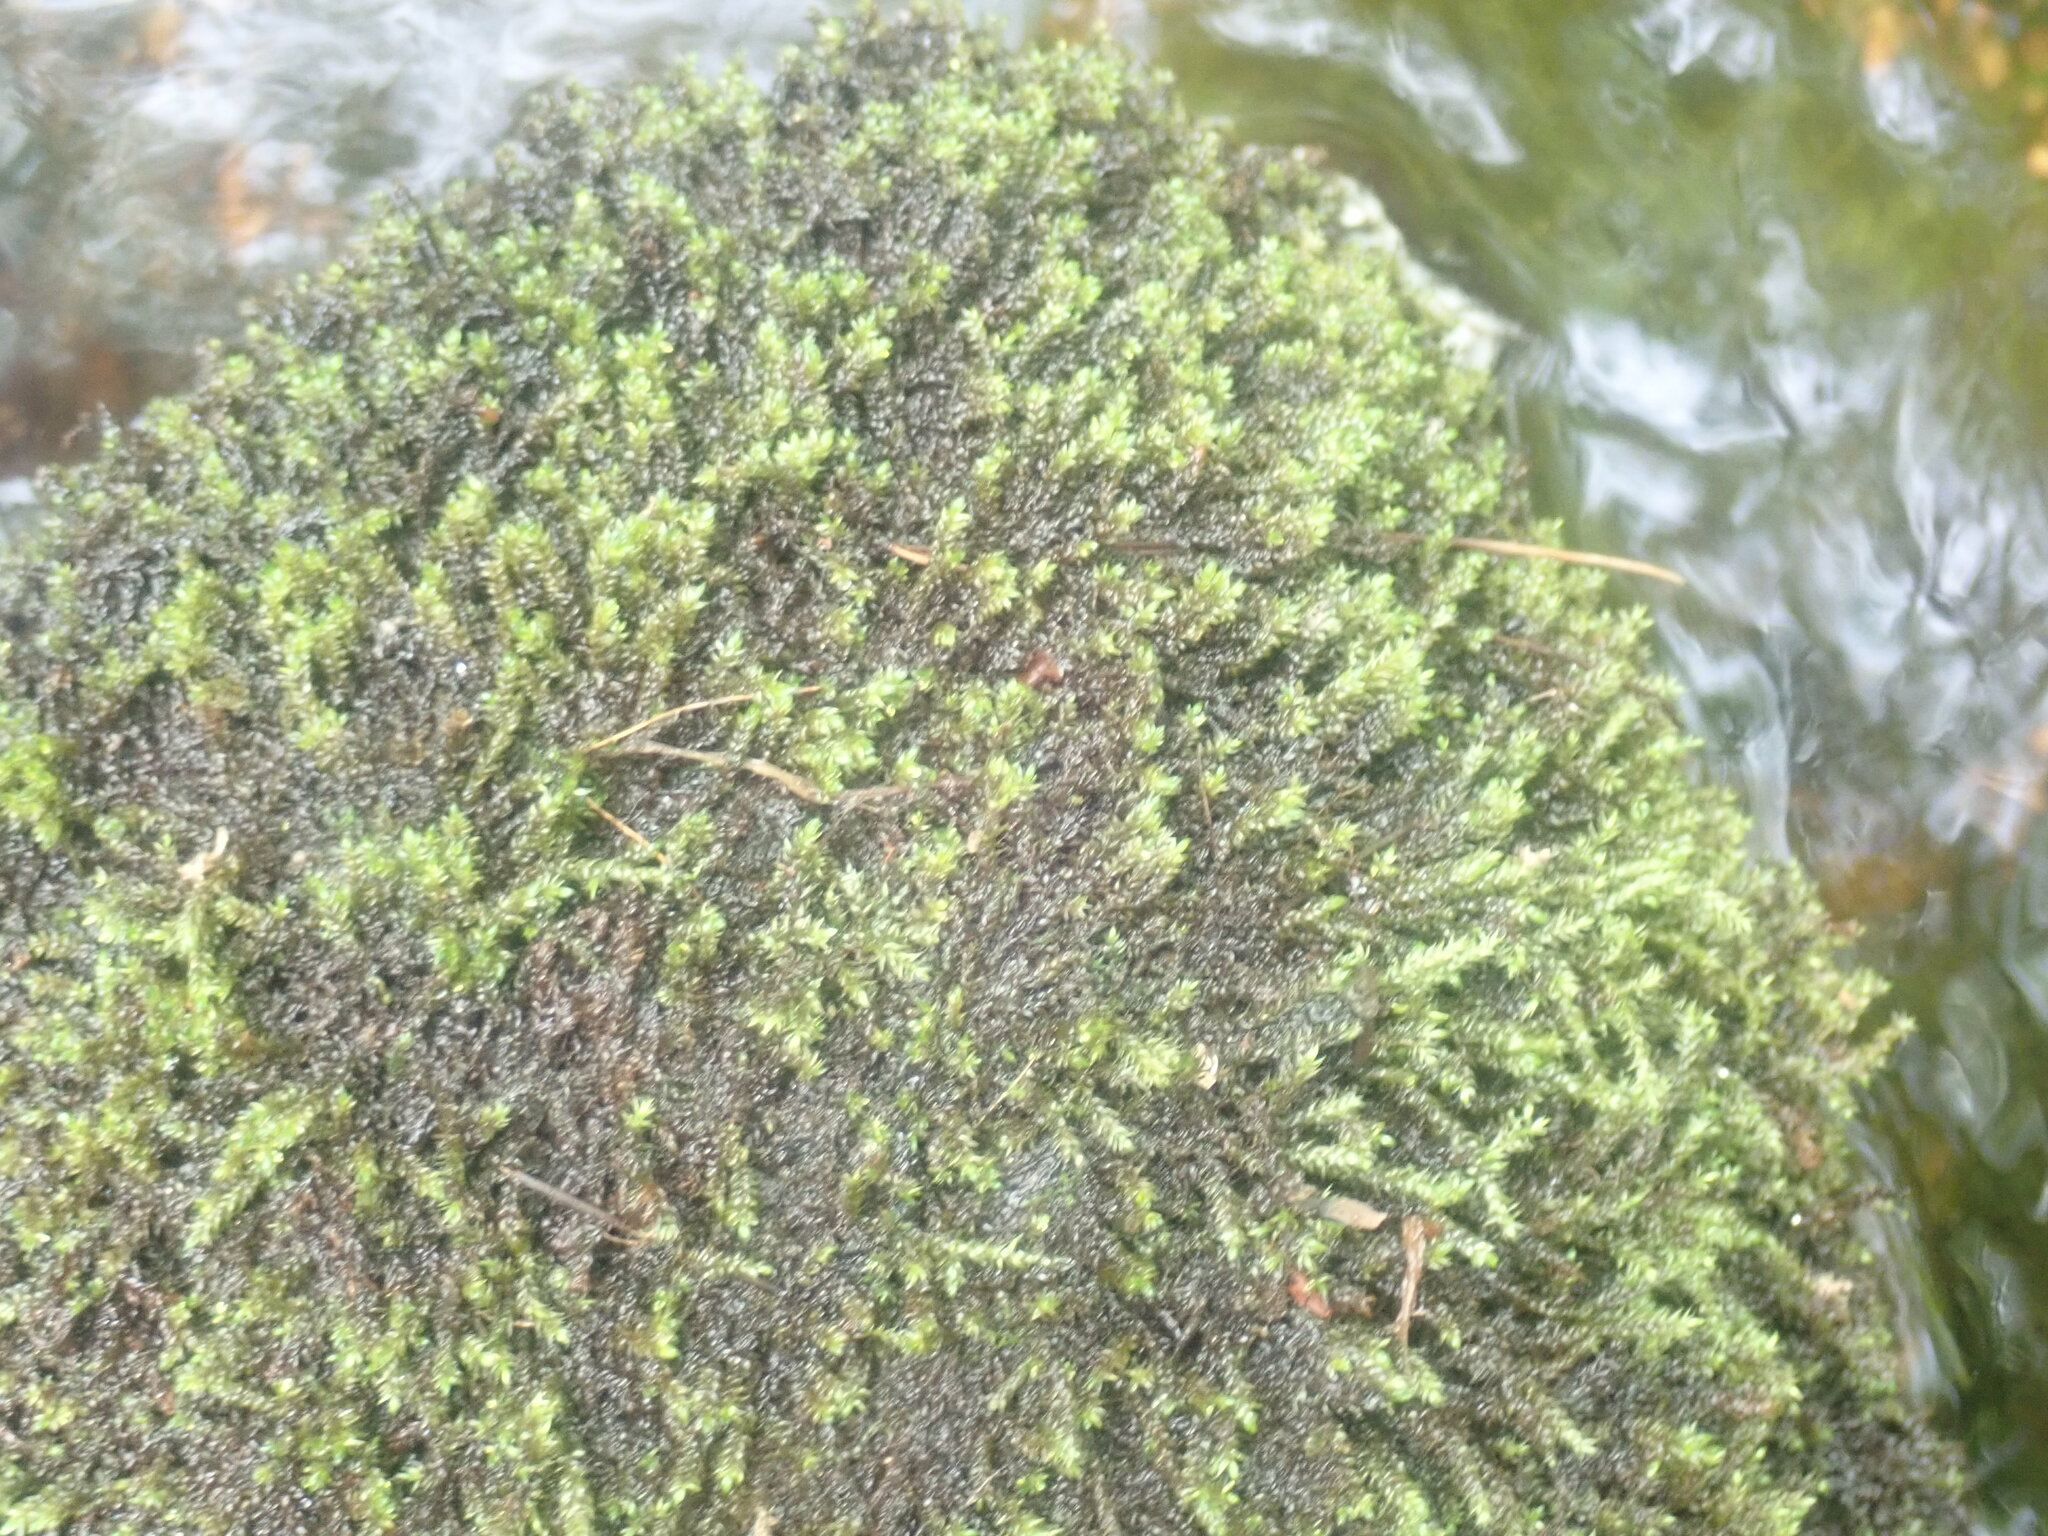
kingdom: Plantae
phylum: Bryophyta
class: Bryopsida
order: Hypnales
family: Scorpidiaceae
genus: Hygrohypnella
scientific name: Hygrohypnella ochracea
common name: Hygrohypnum moss
